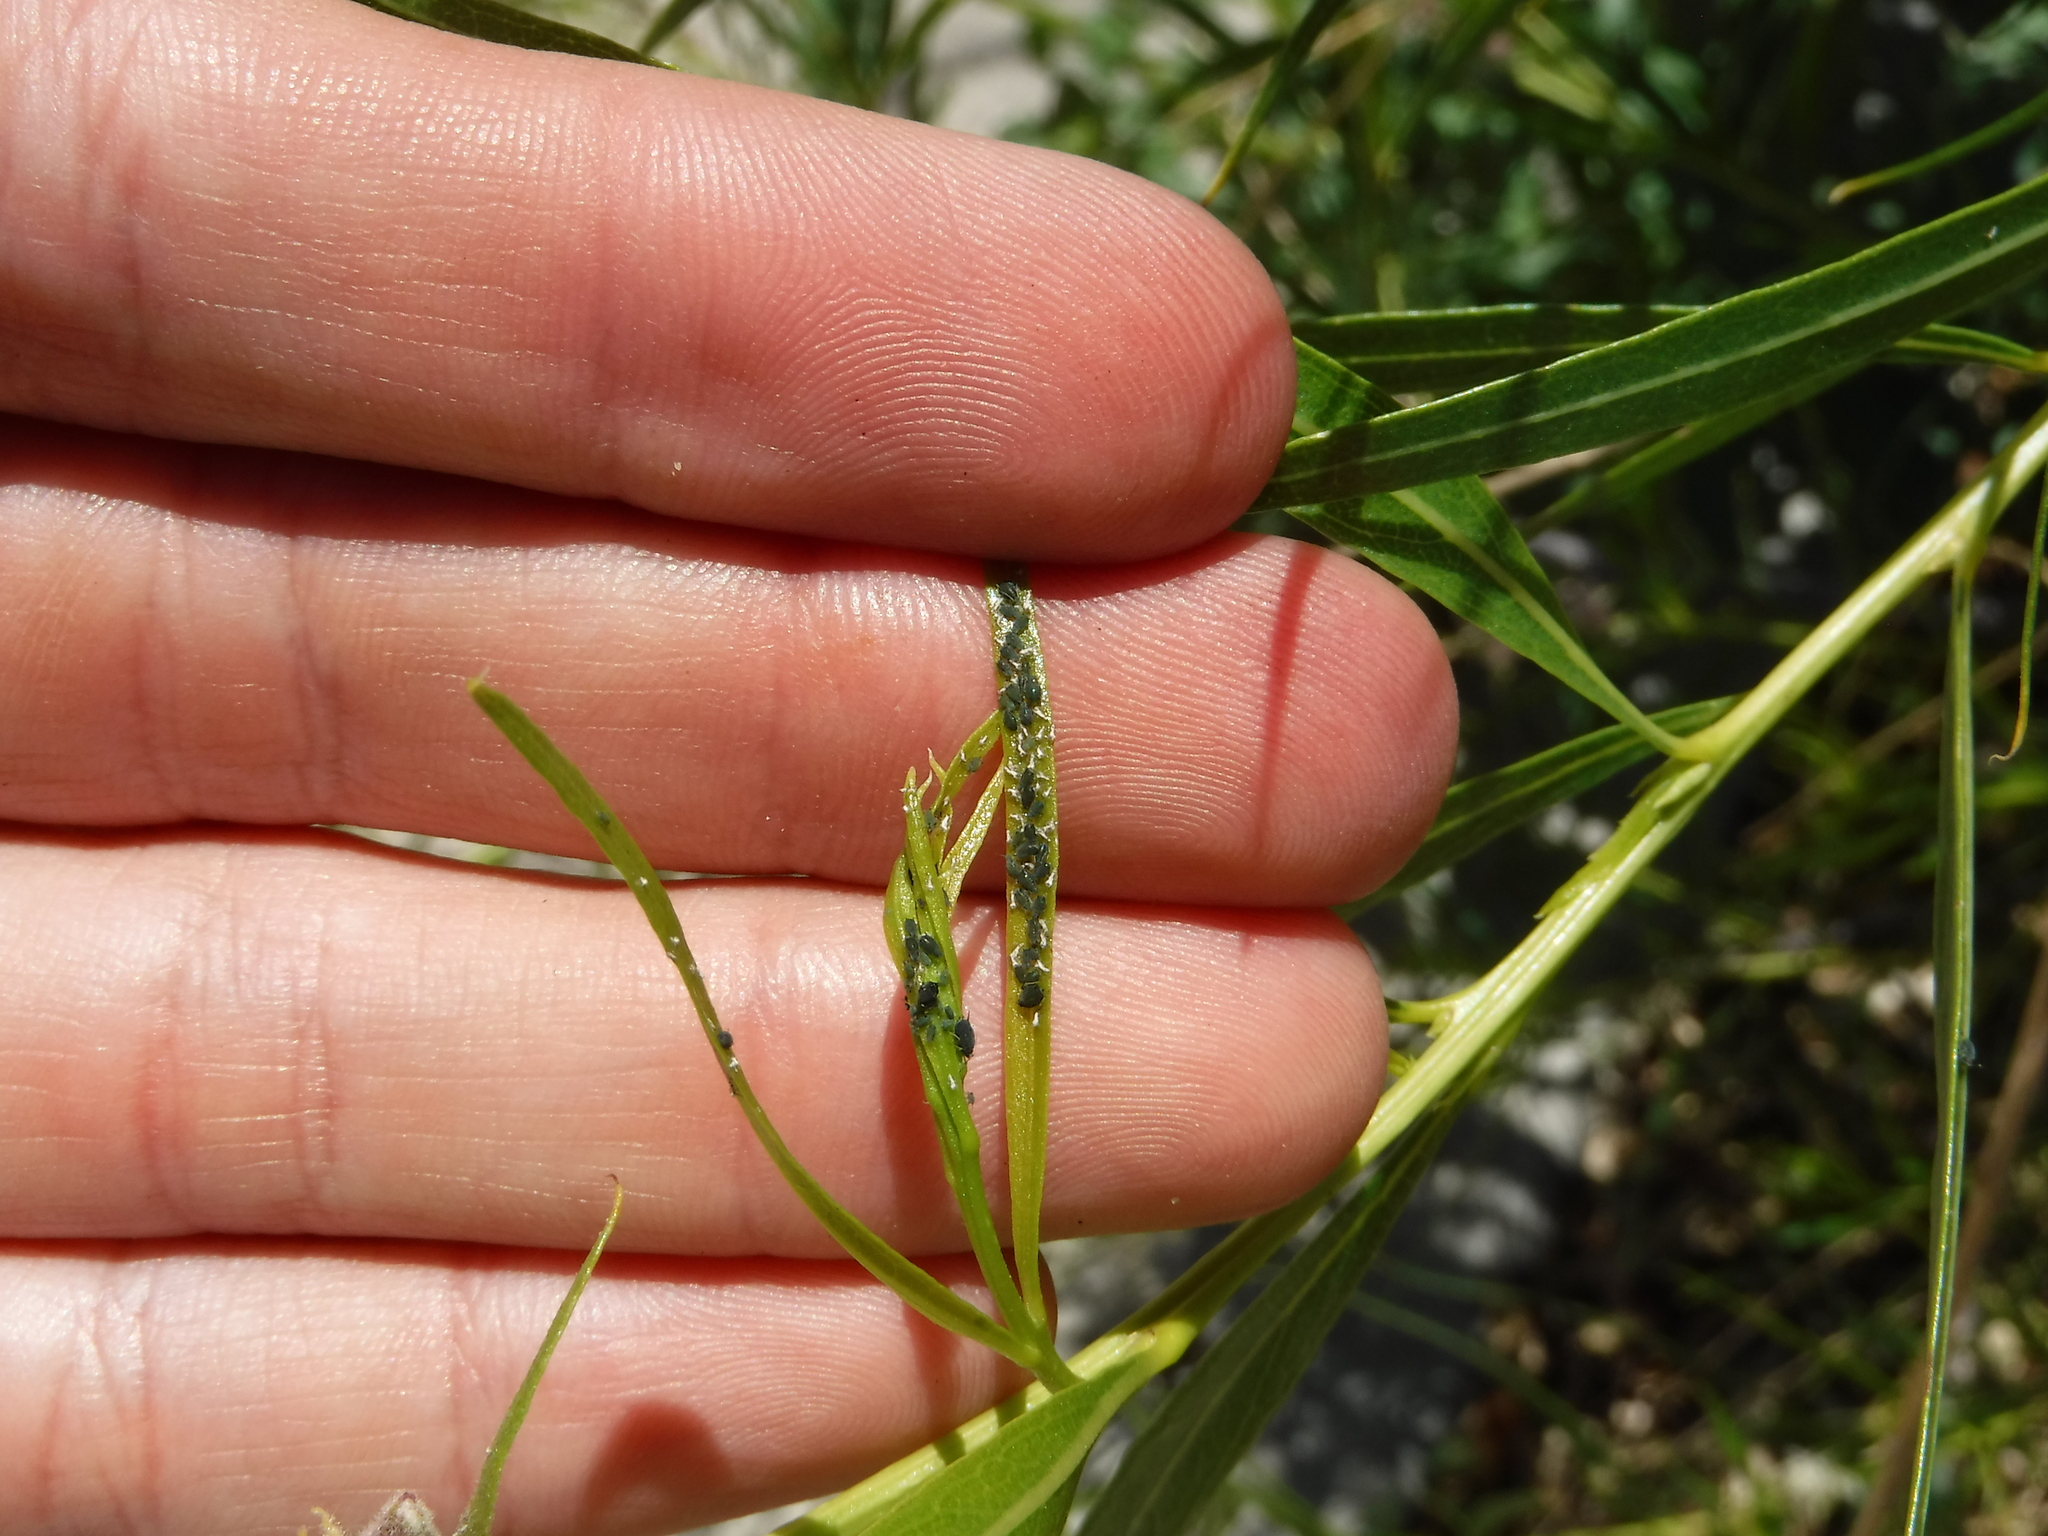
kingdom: Animalia
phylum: Arthropoda
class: Insecta
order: Hemiptera
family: Aphididae
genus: Aphis
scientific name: Aphis
